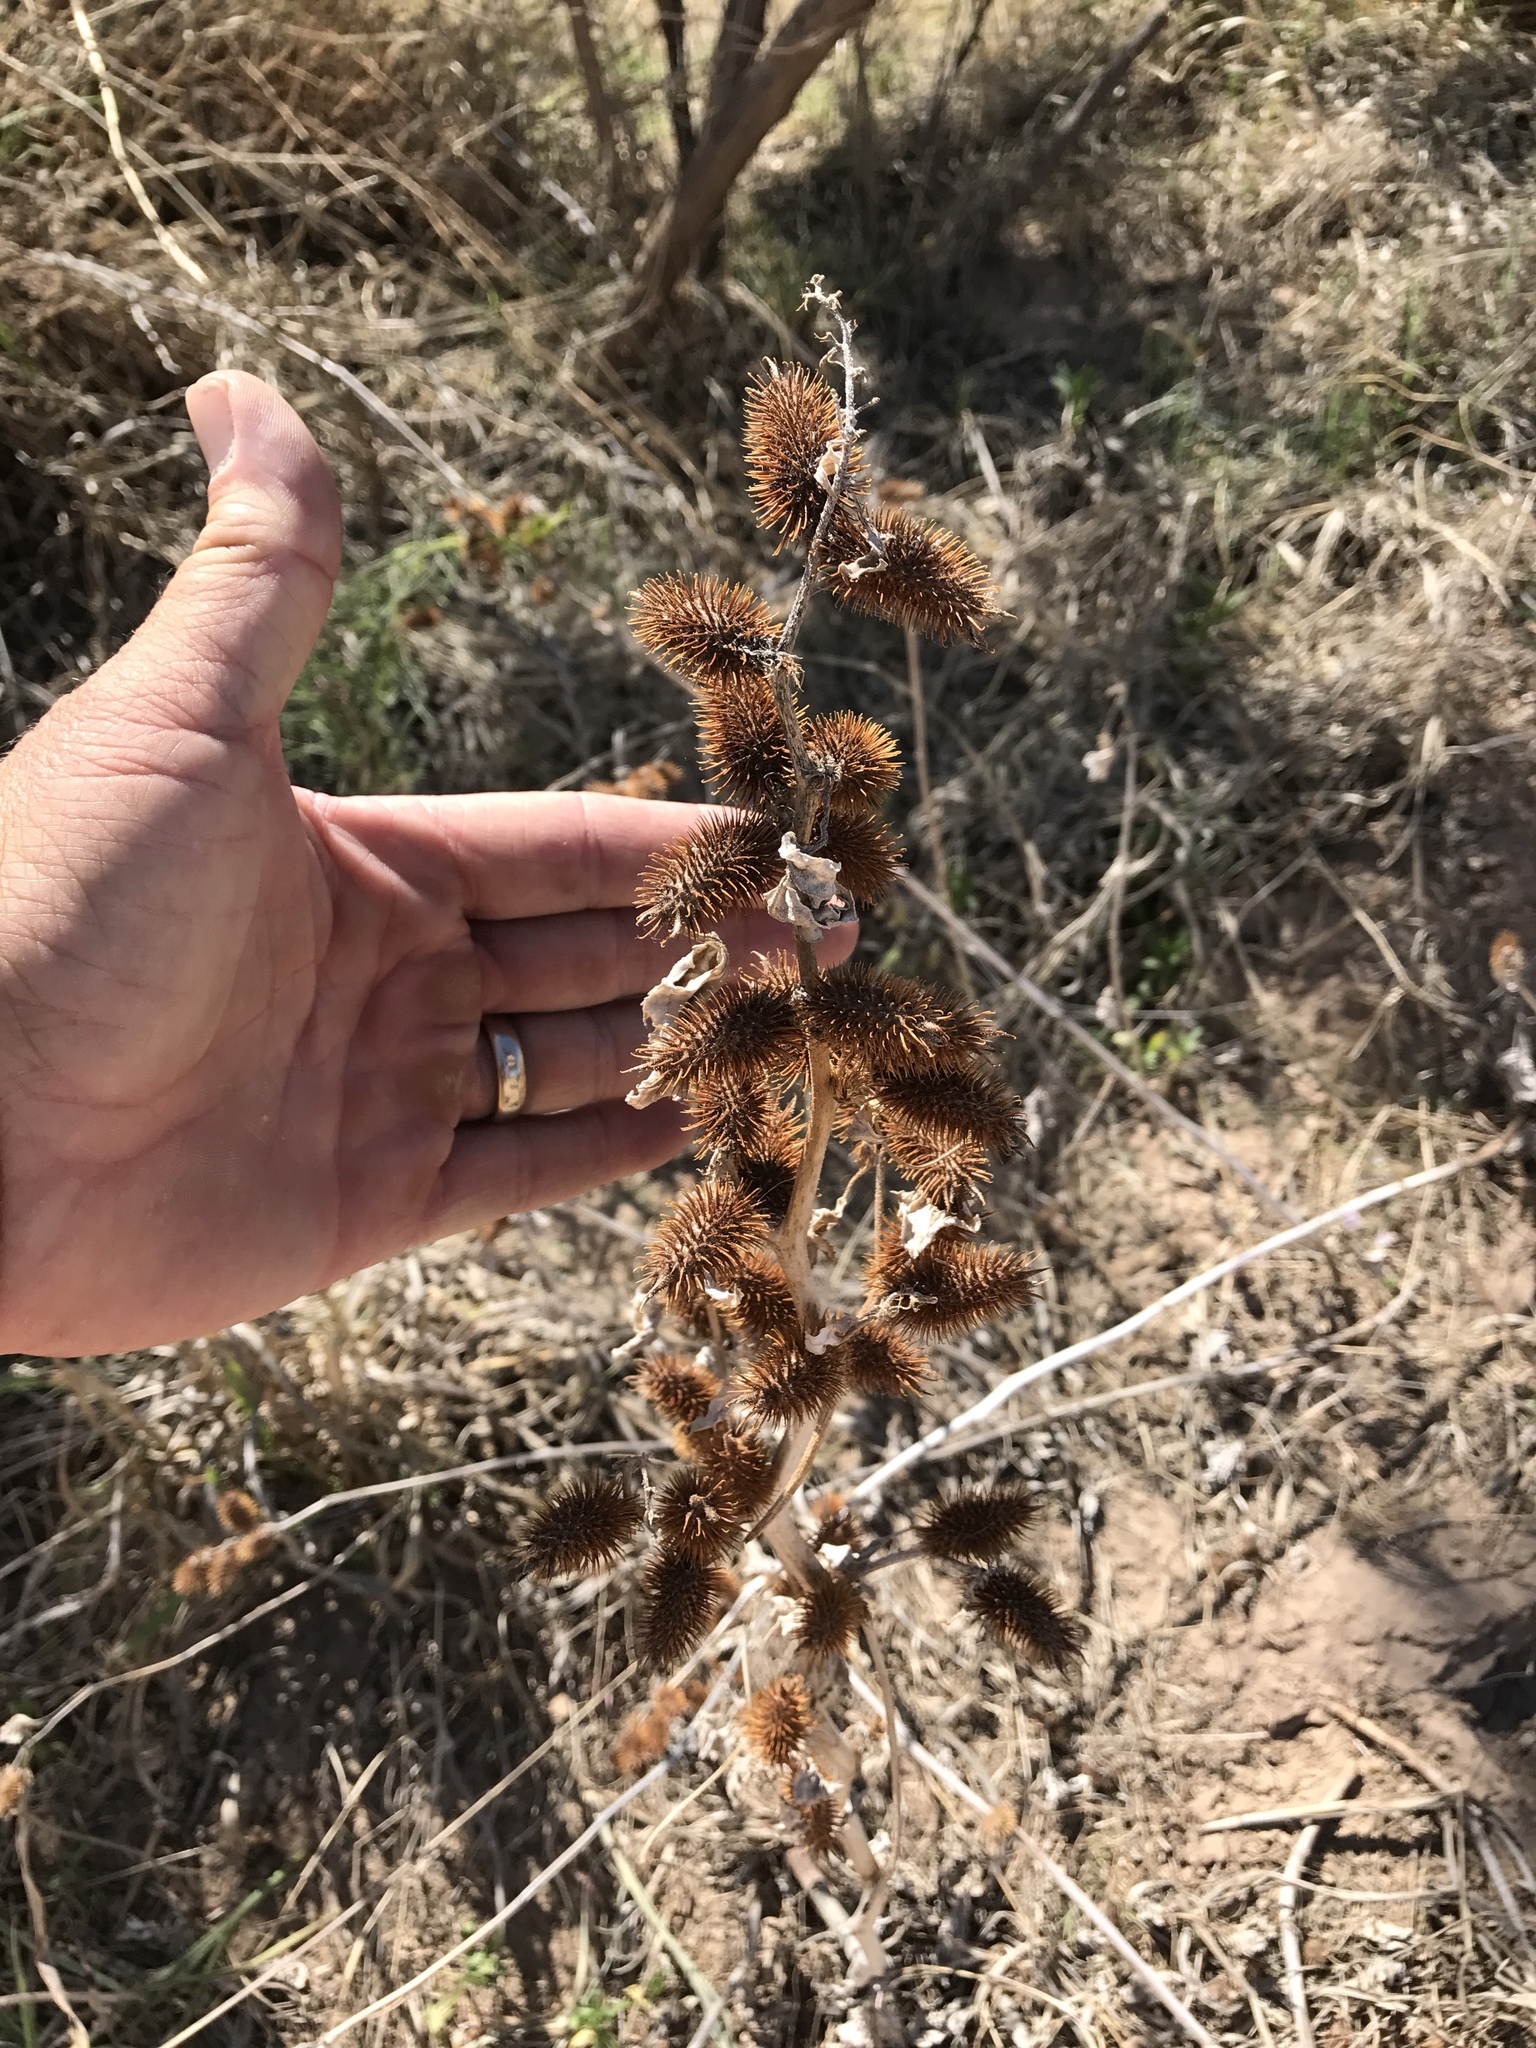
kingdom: Plantae
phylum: Tracheophyta
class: Magnoliopsida
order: Asterales
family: Asteraceae
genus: Xanthium
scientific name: Xanthium strumarium
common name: Rough cocklebur
